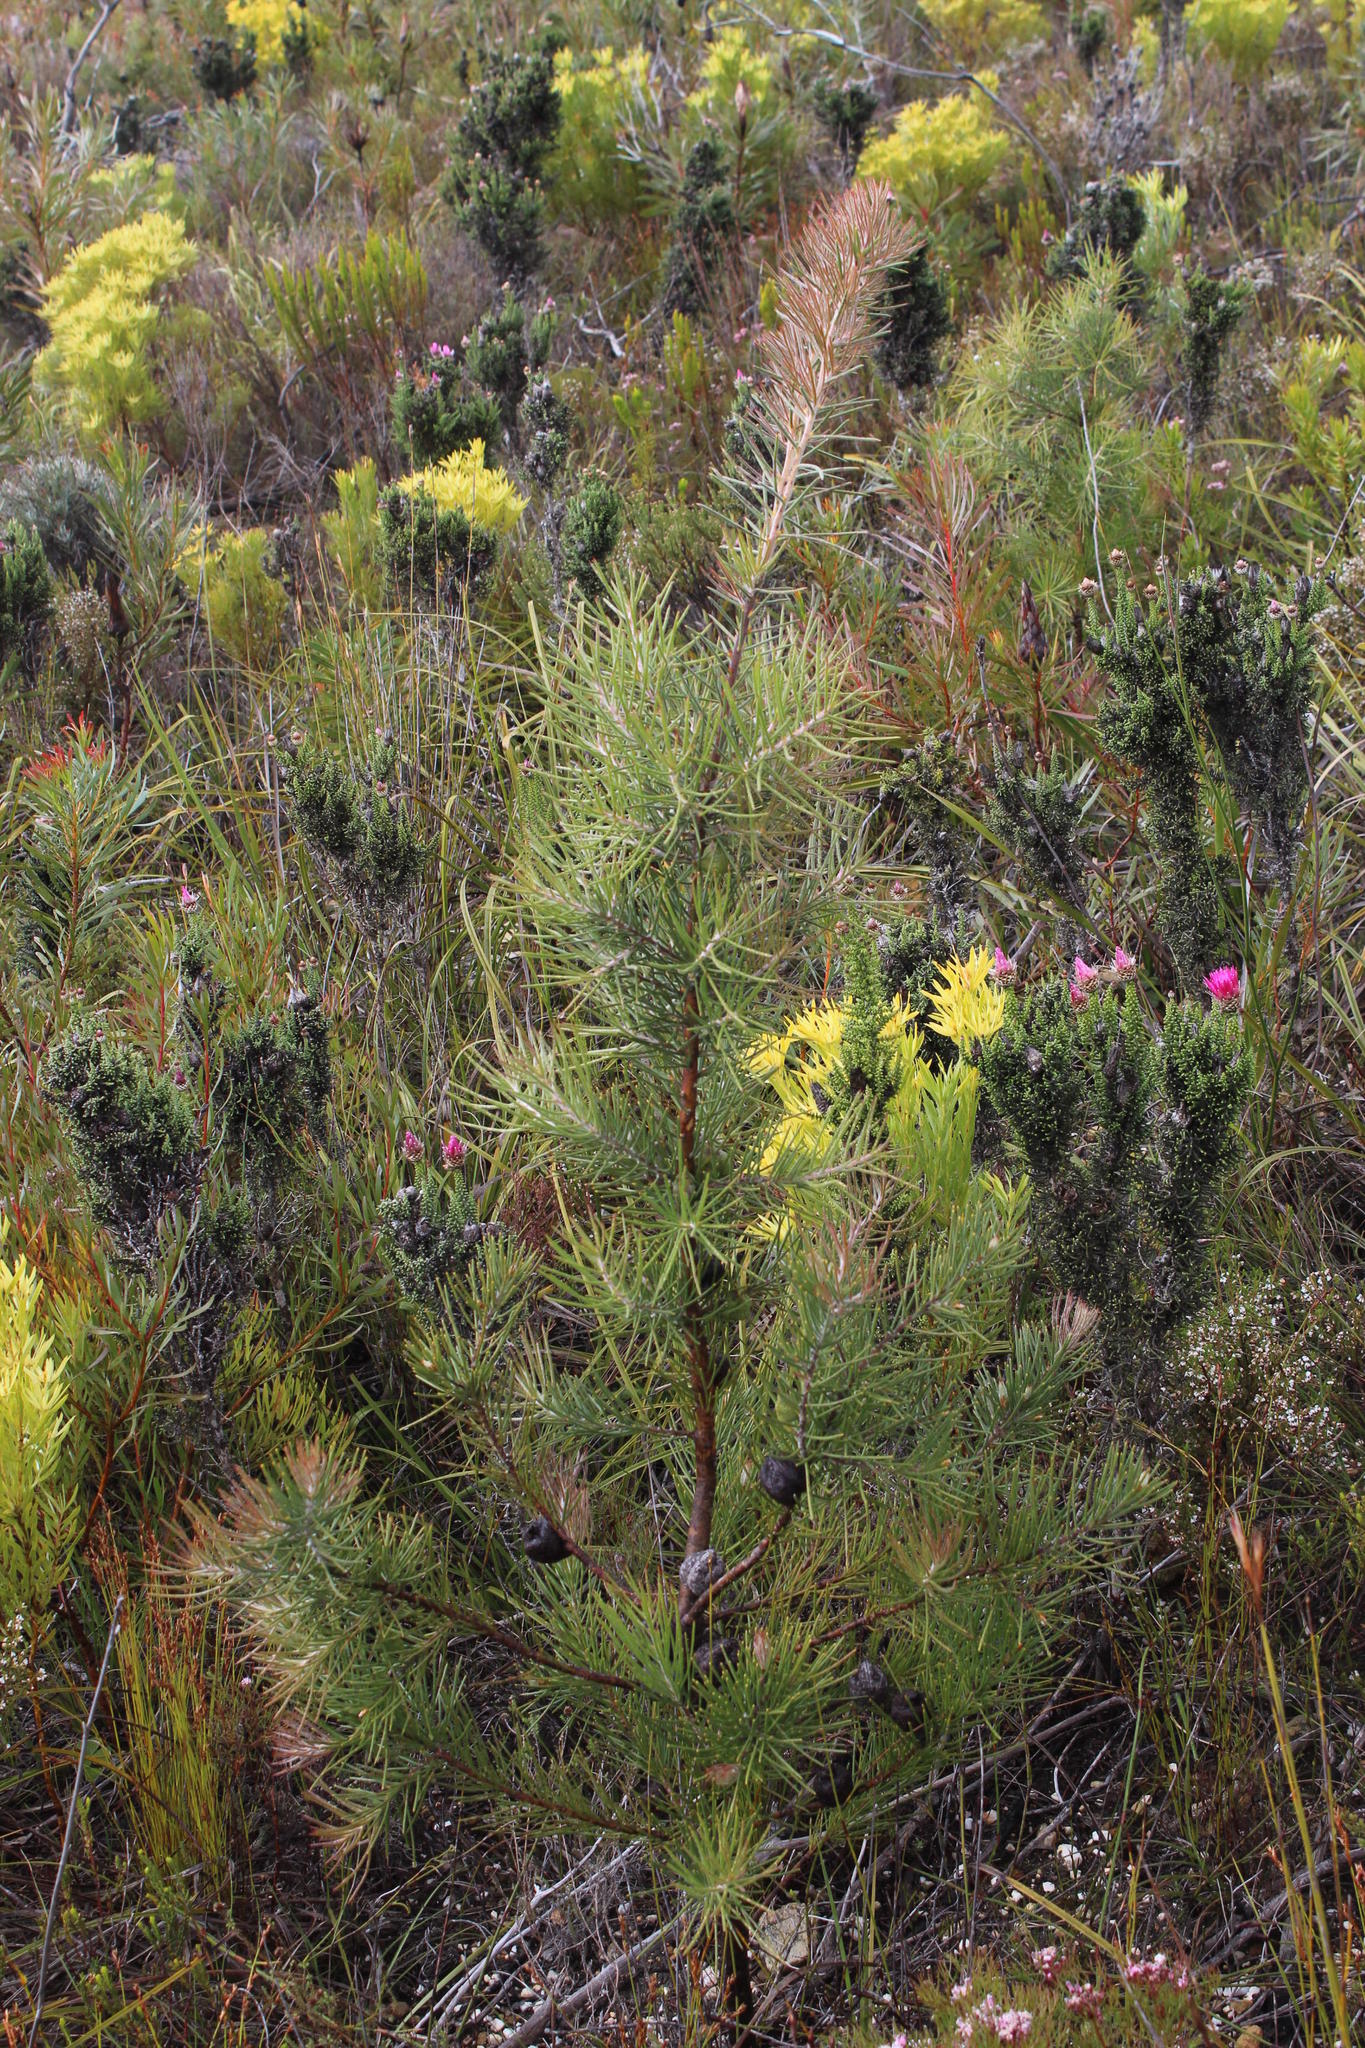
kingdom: Plantae
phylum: Tracheophyta
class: Magnoliopsida
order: Proteales
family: Proteaceae
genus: Hakea
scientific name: Hakea gibbosa
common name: Rock hakea
